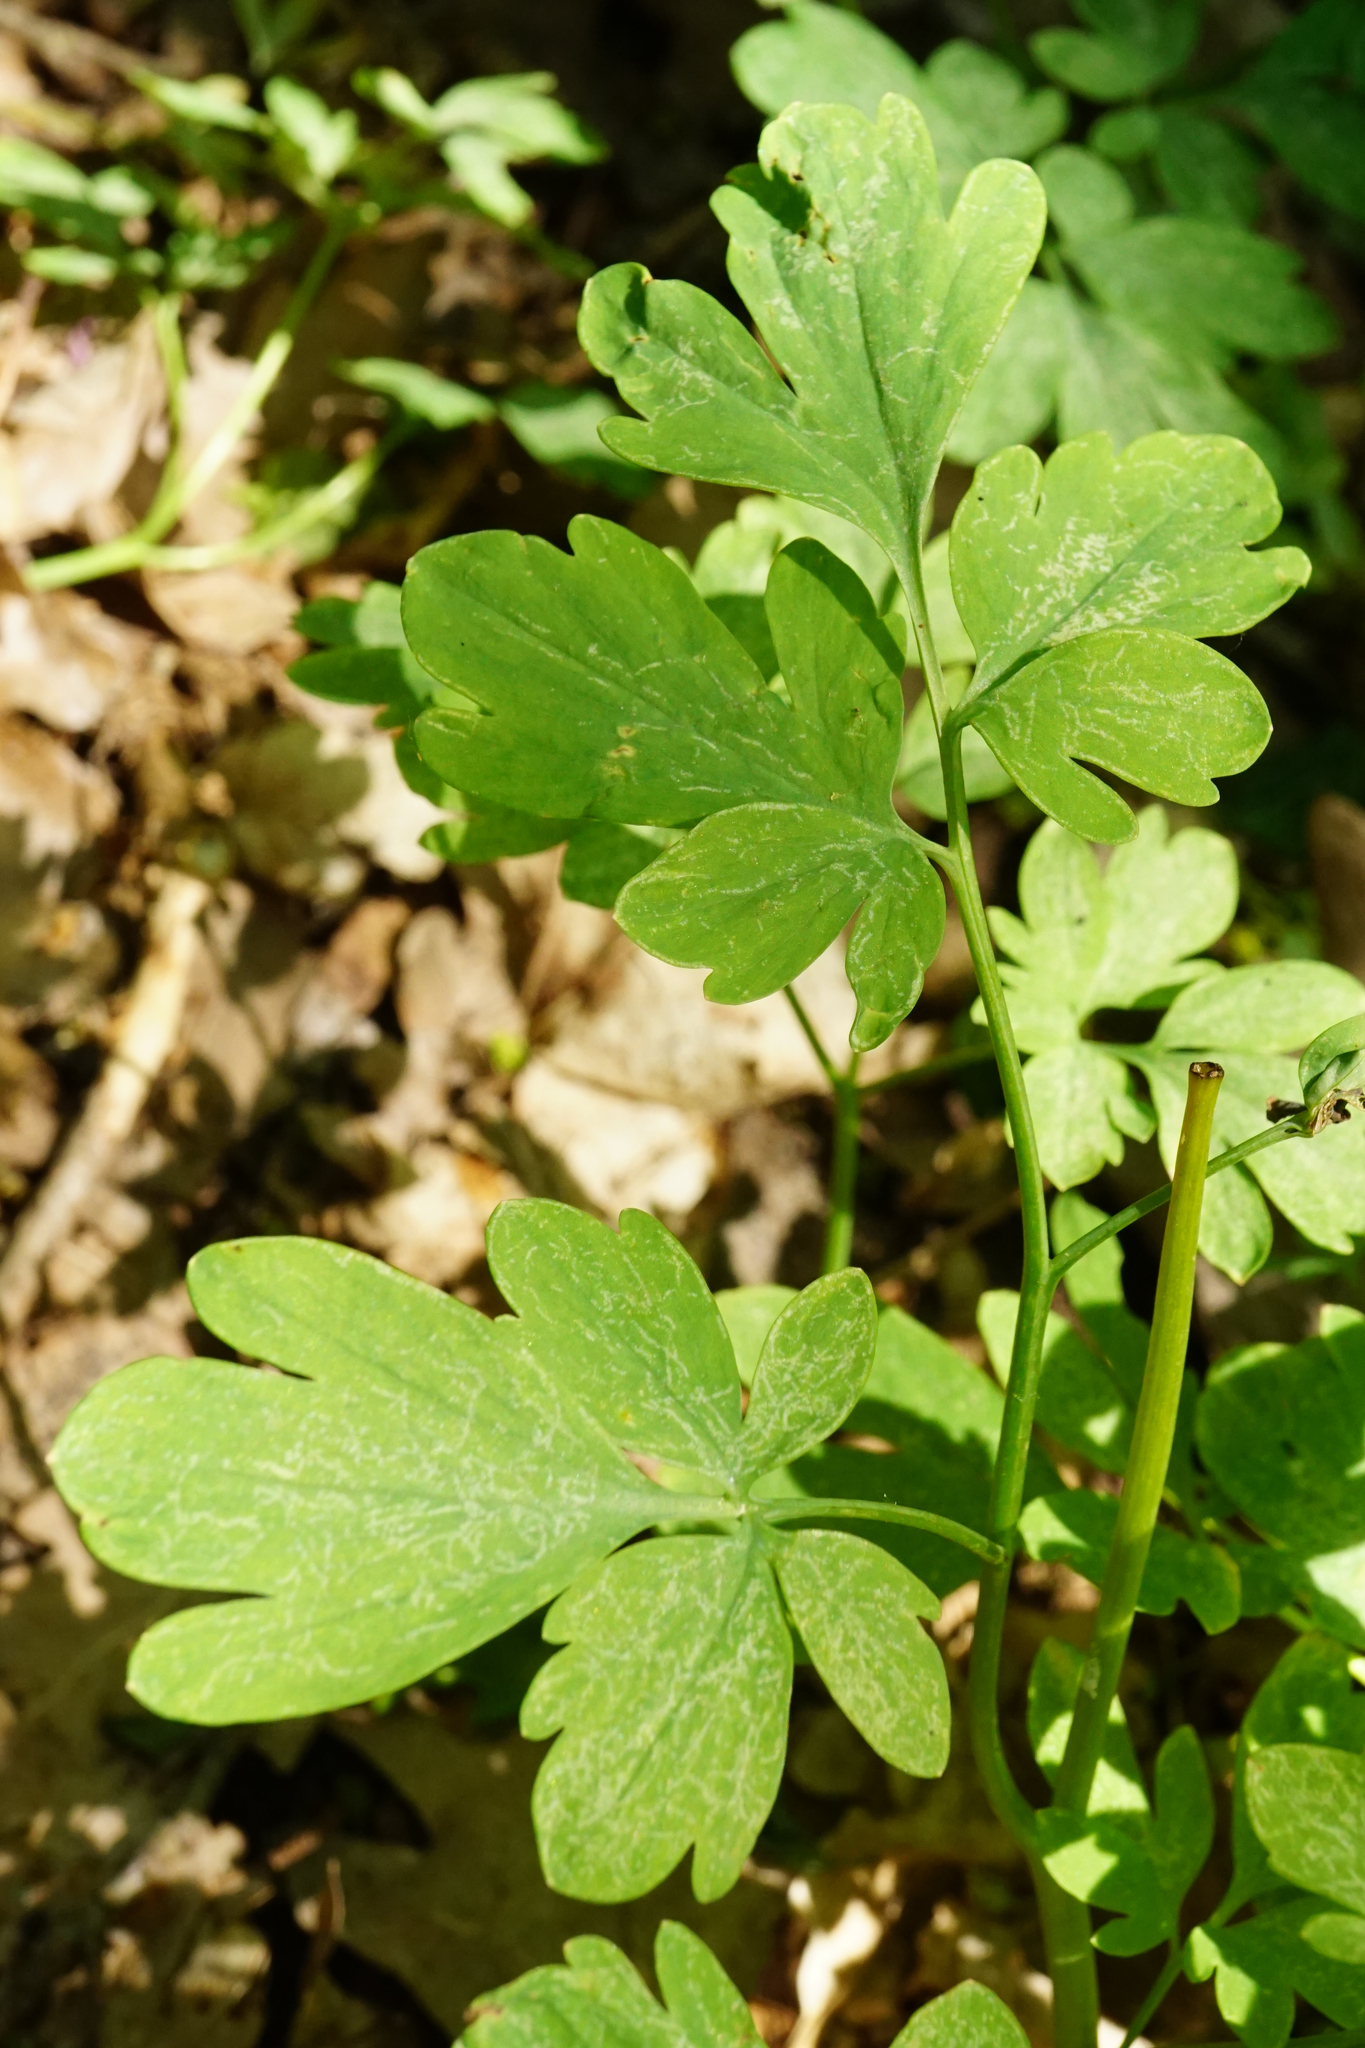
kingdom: Plantae
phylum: Tracheophyta
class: Magnoliopsida
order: Ranunculales
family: Papaveraceae
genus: Corydalis
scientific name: Corydalis cava
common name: Hollowroot
